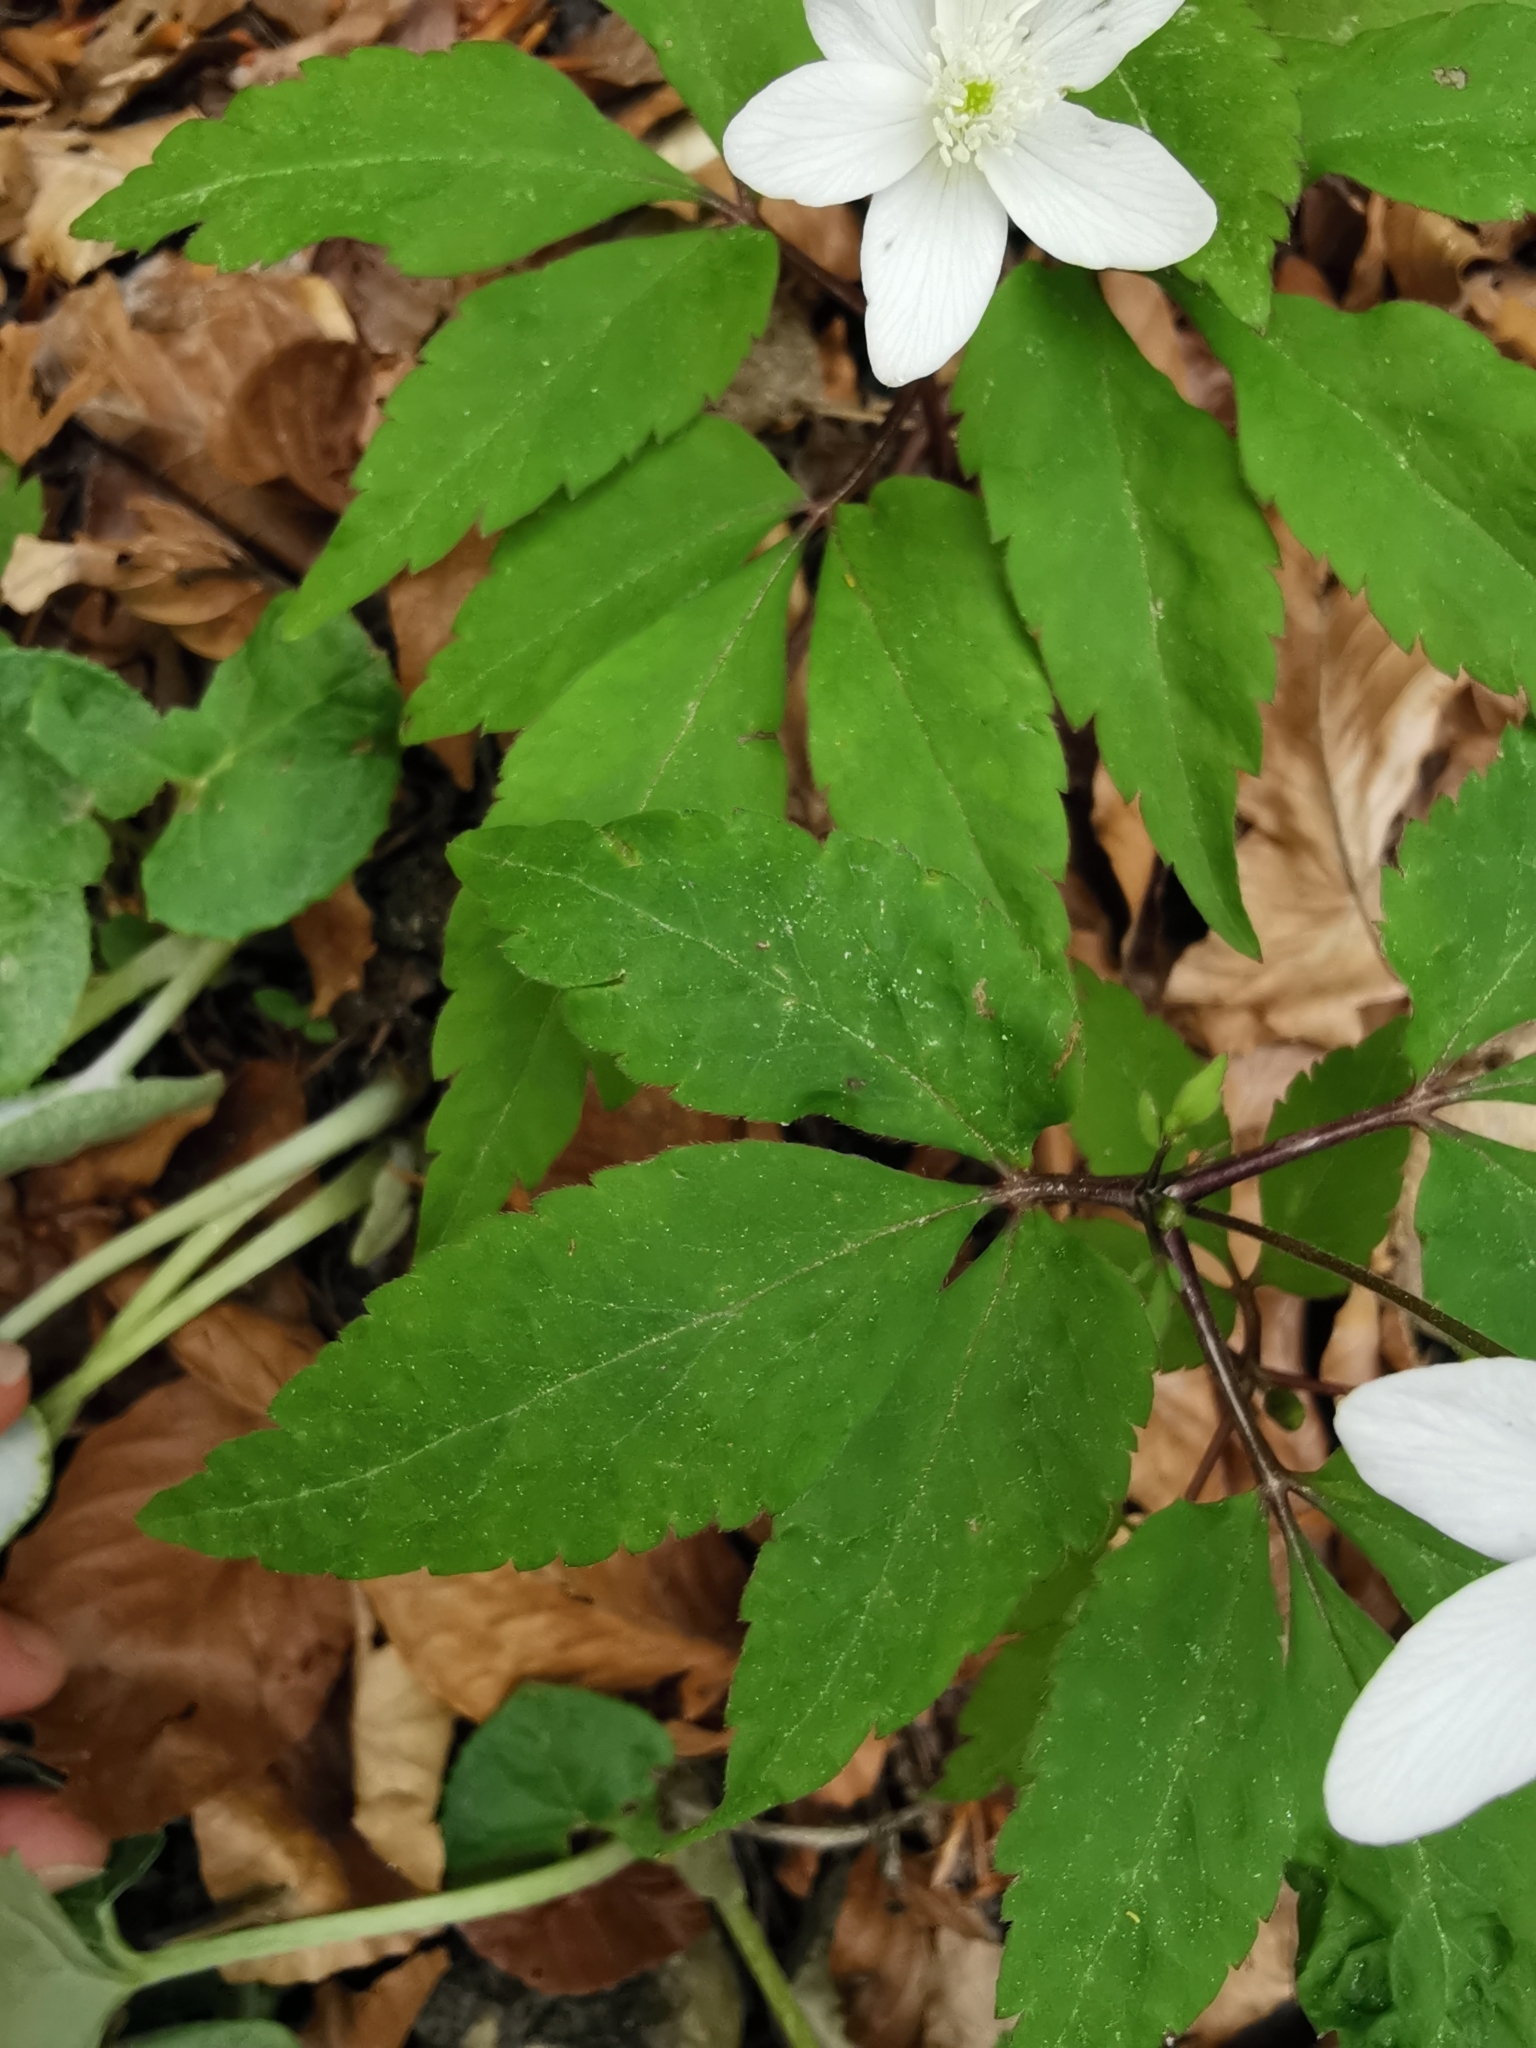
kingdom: Plantae
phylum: Tracheophyta
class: Magnoliopsida
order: Ranunculales
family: Ranunculaceae
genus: Anemone
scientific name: Anemone trifolia
